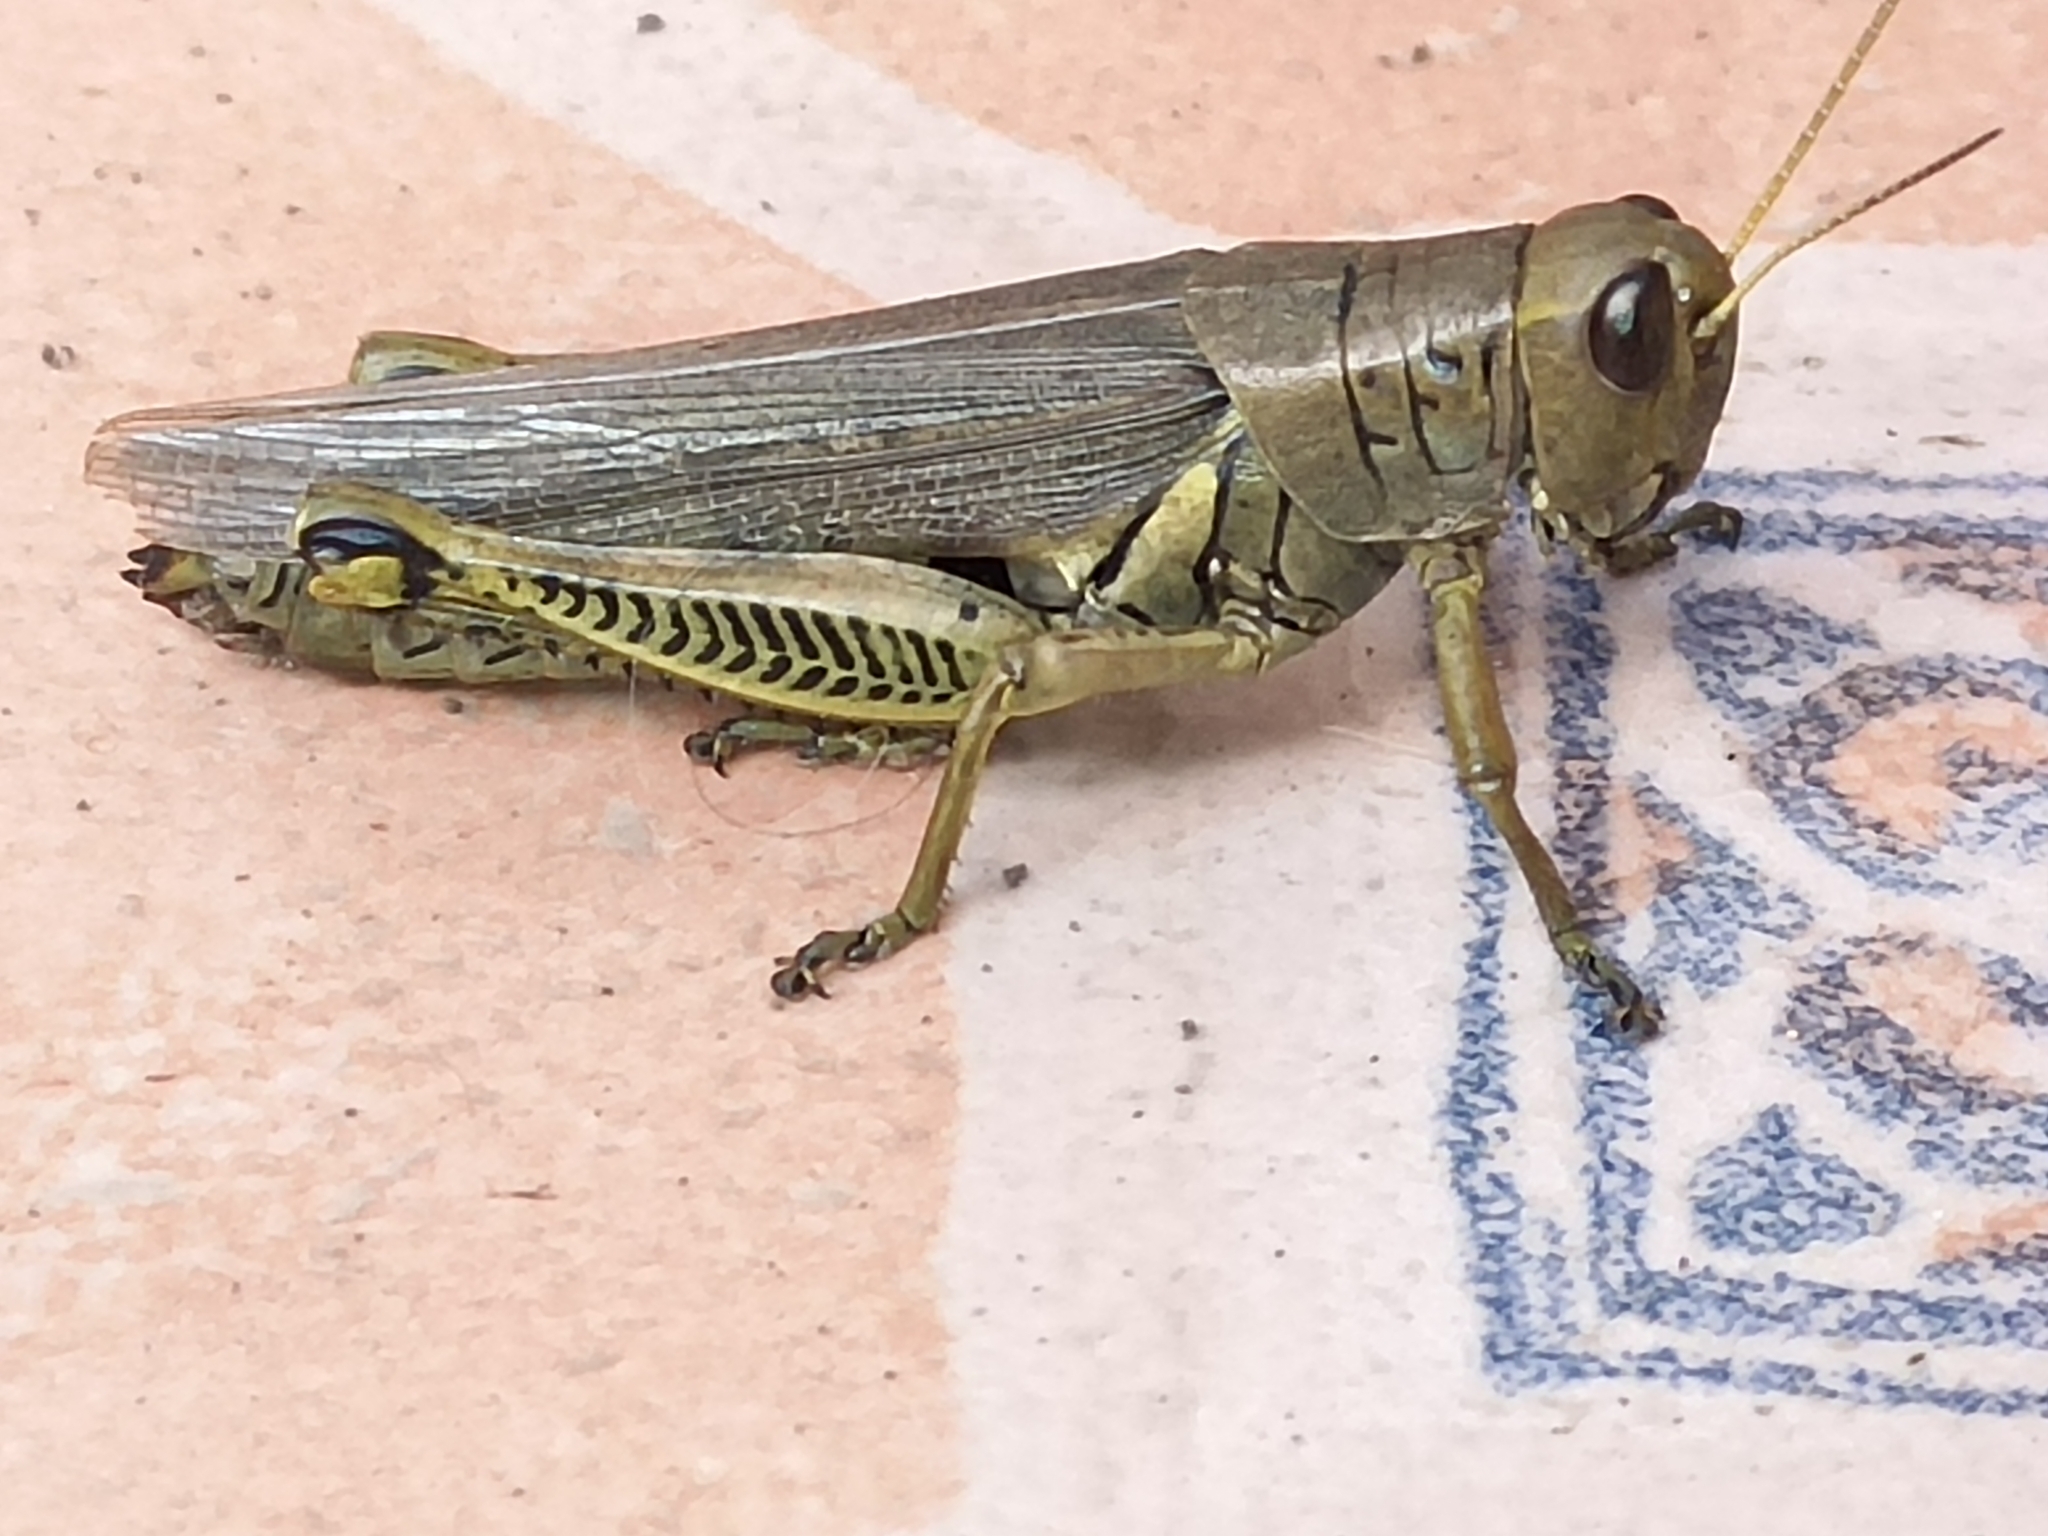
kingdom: Animalia
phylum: Arthropoda
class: Insecta
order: Orthoptera
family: Acrididae
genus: Melanoplus
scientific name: Melanoplus differentialis
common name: Differential grasshopper
